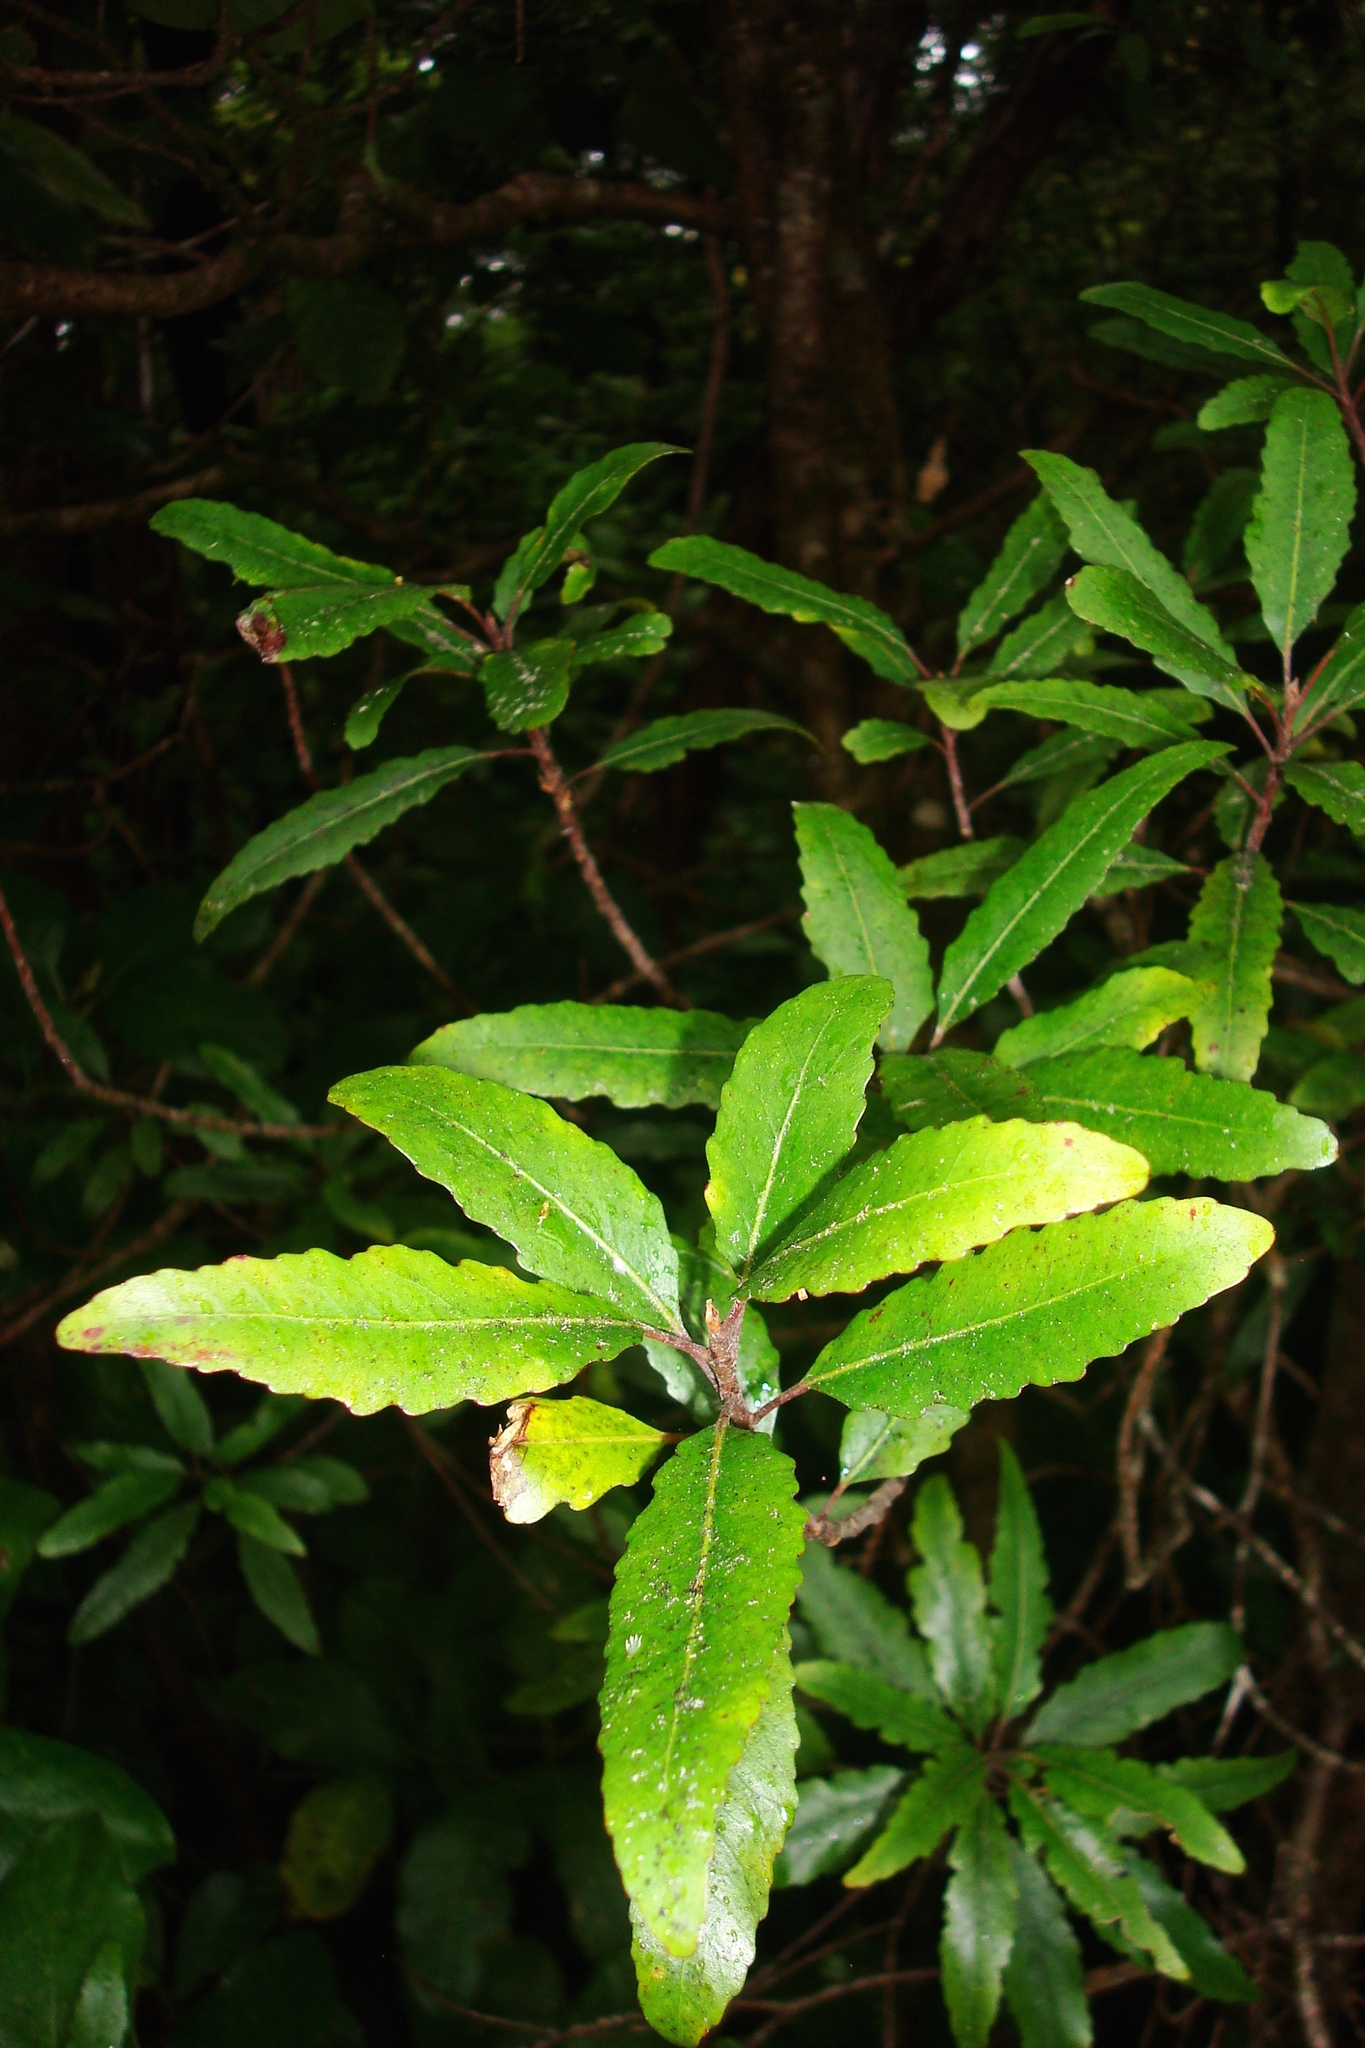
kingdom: Plantae
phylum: Tracheophyta
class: Magnoliopsida
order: Oxalidales
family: Elaeocarpaceae
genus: Elaeocarpus
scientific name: Elaeocarpus hookerianus
